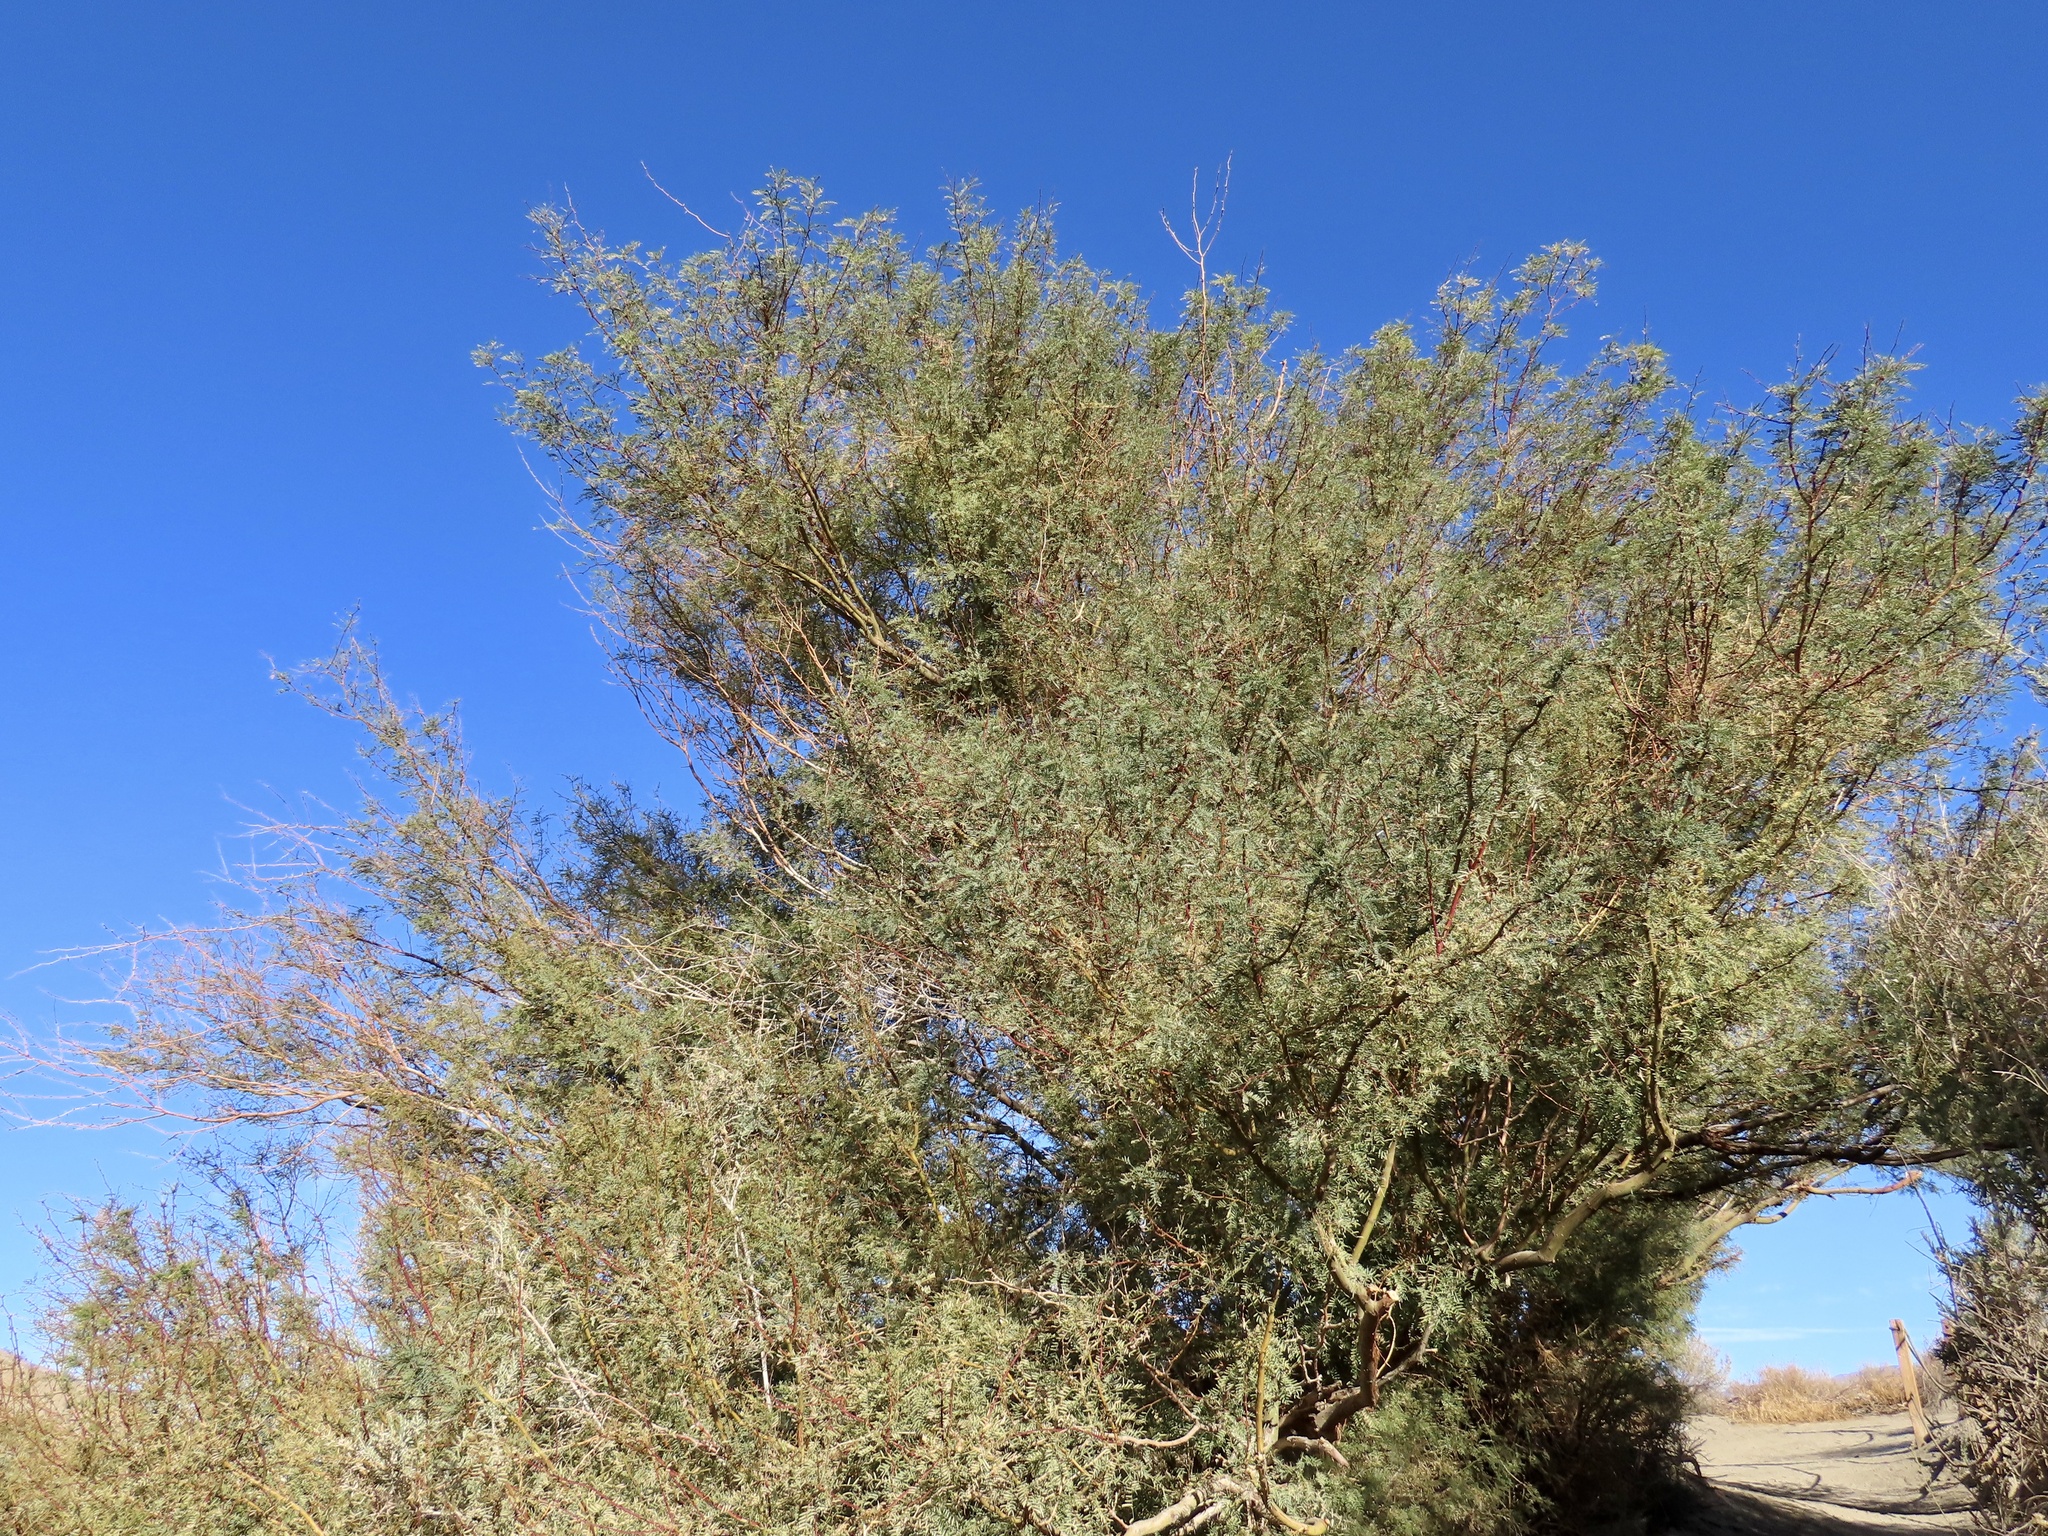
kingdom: Plantae
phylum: Tracheophyta
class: Magnoliopsida
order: Fabales
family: Fabaceae
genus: Prosopis
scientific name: Prosopis pubescens
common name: Screw-bean
